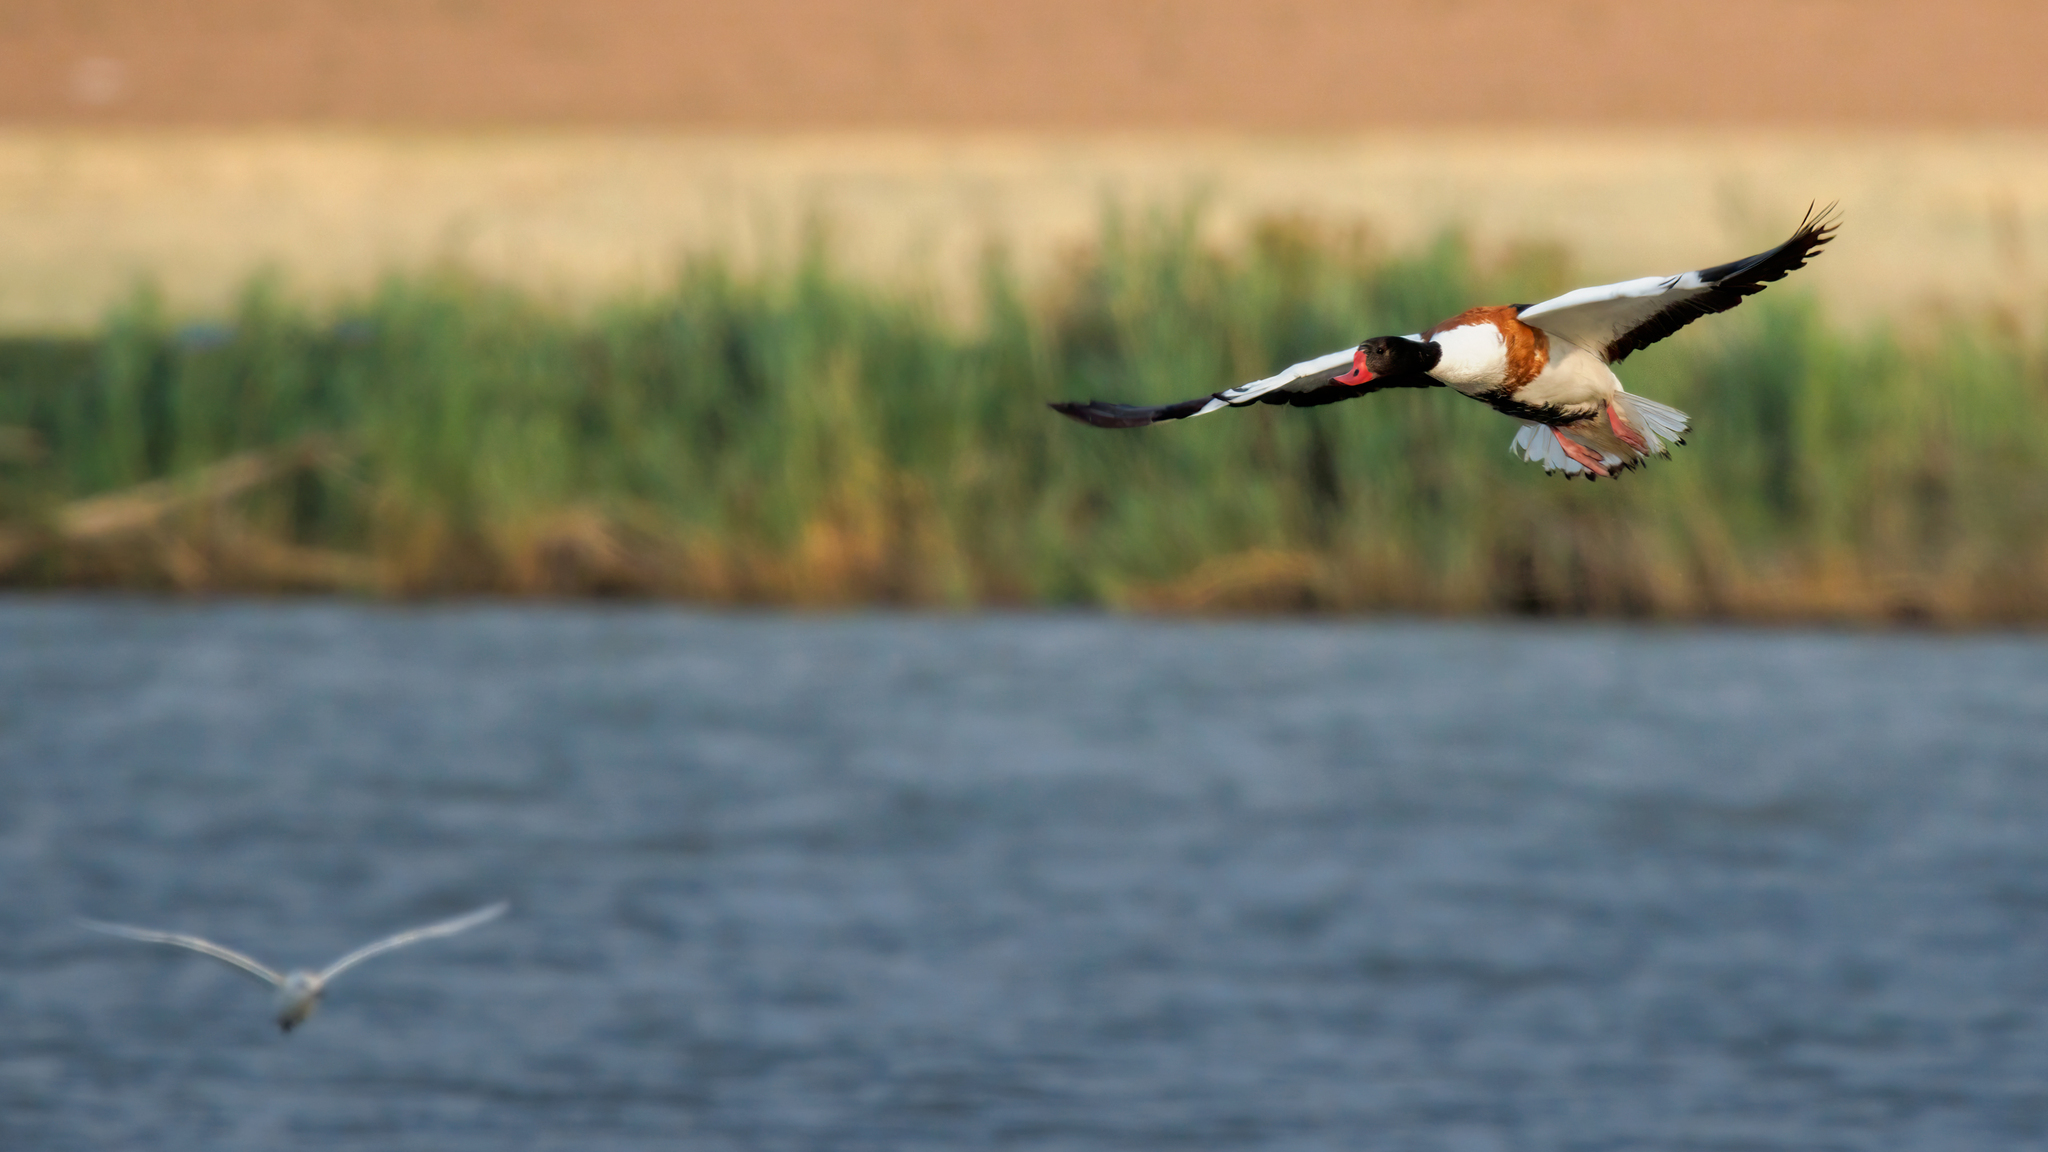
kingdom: Animalia
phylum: Chordata
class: Aves
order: Anseriformes
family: Anatidae
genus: Tadorna
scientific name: Tadorna tadorna
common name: Common shelduck
